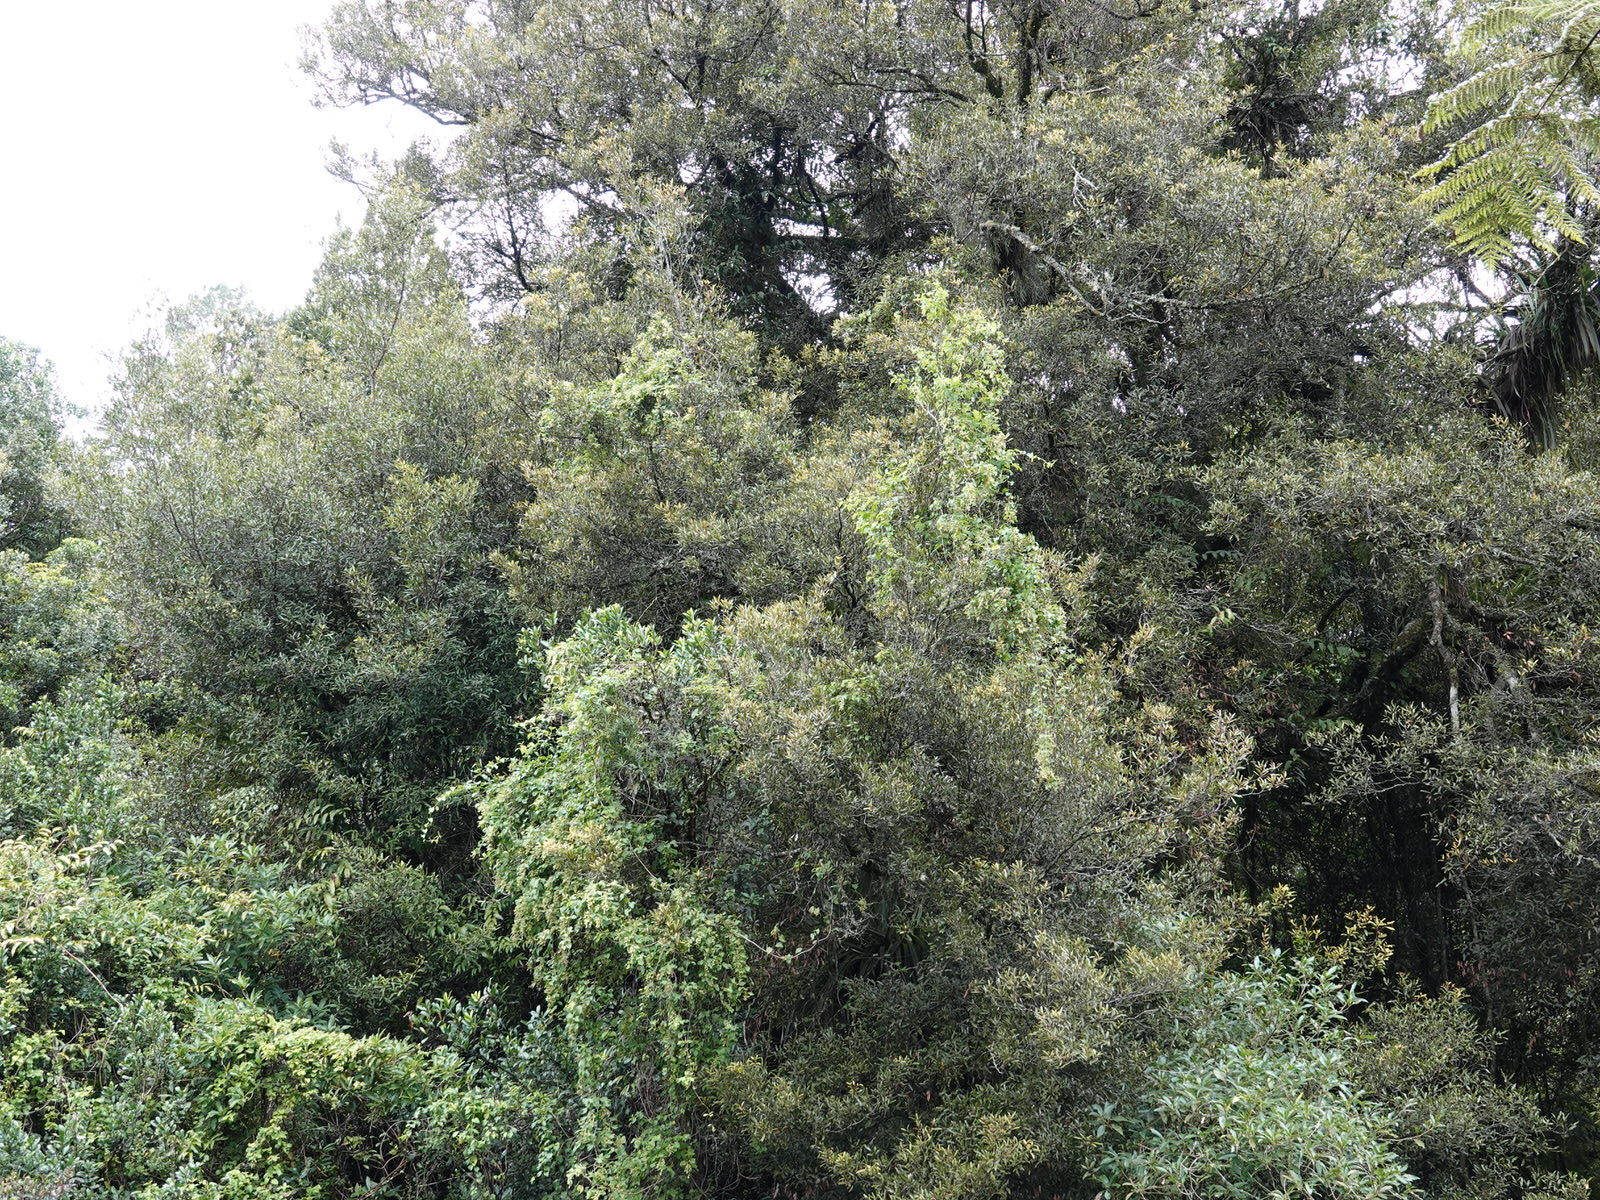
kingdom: Plantae
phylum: Tracheophyta
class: Magnoliopsida
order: Caryophyllales
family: Polygonaceae
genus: Muehlenbeckia
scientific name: Muehlenbeckia australis
